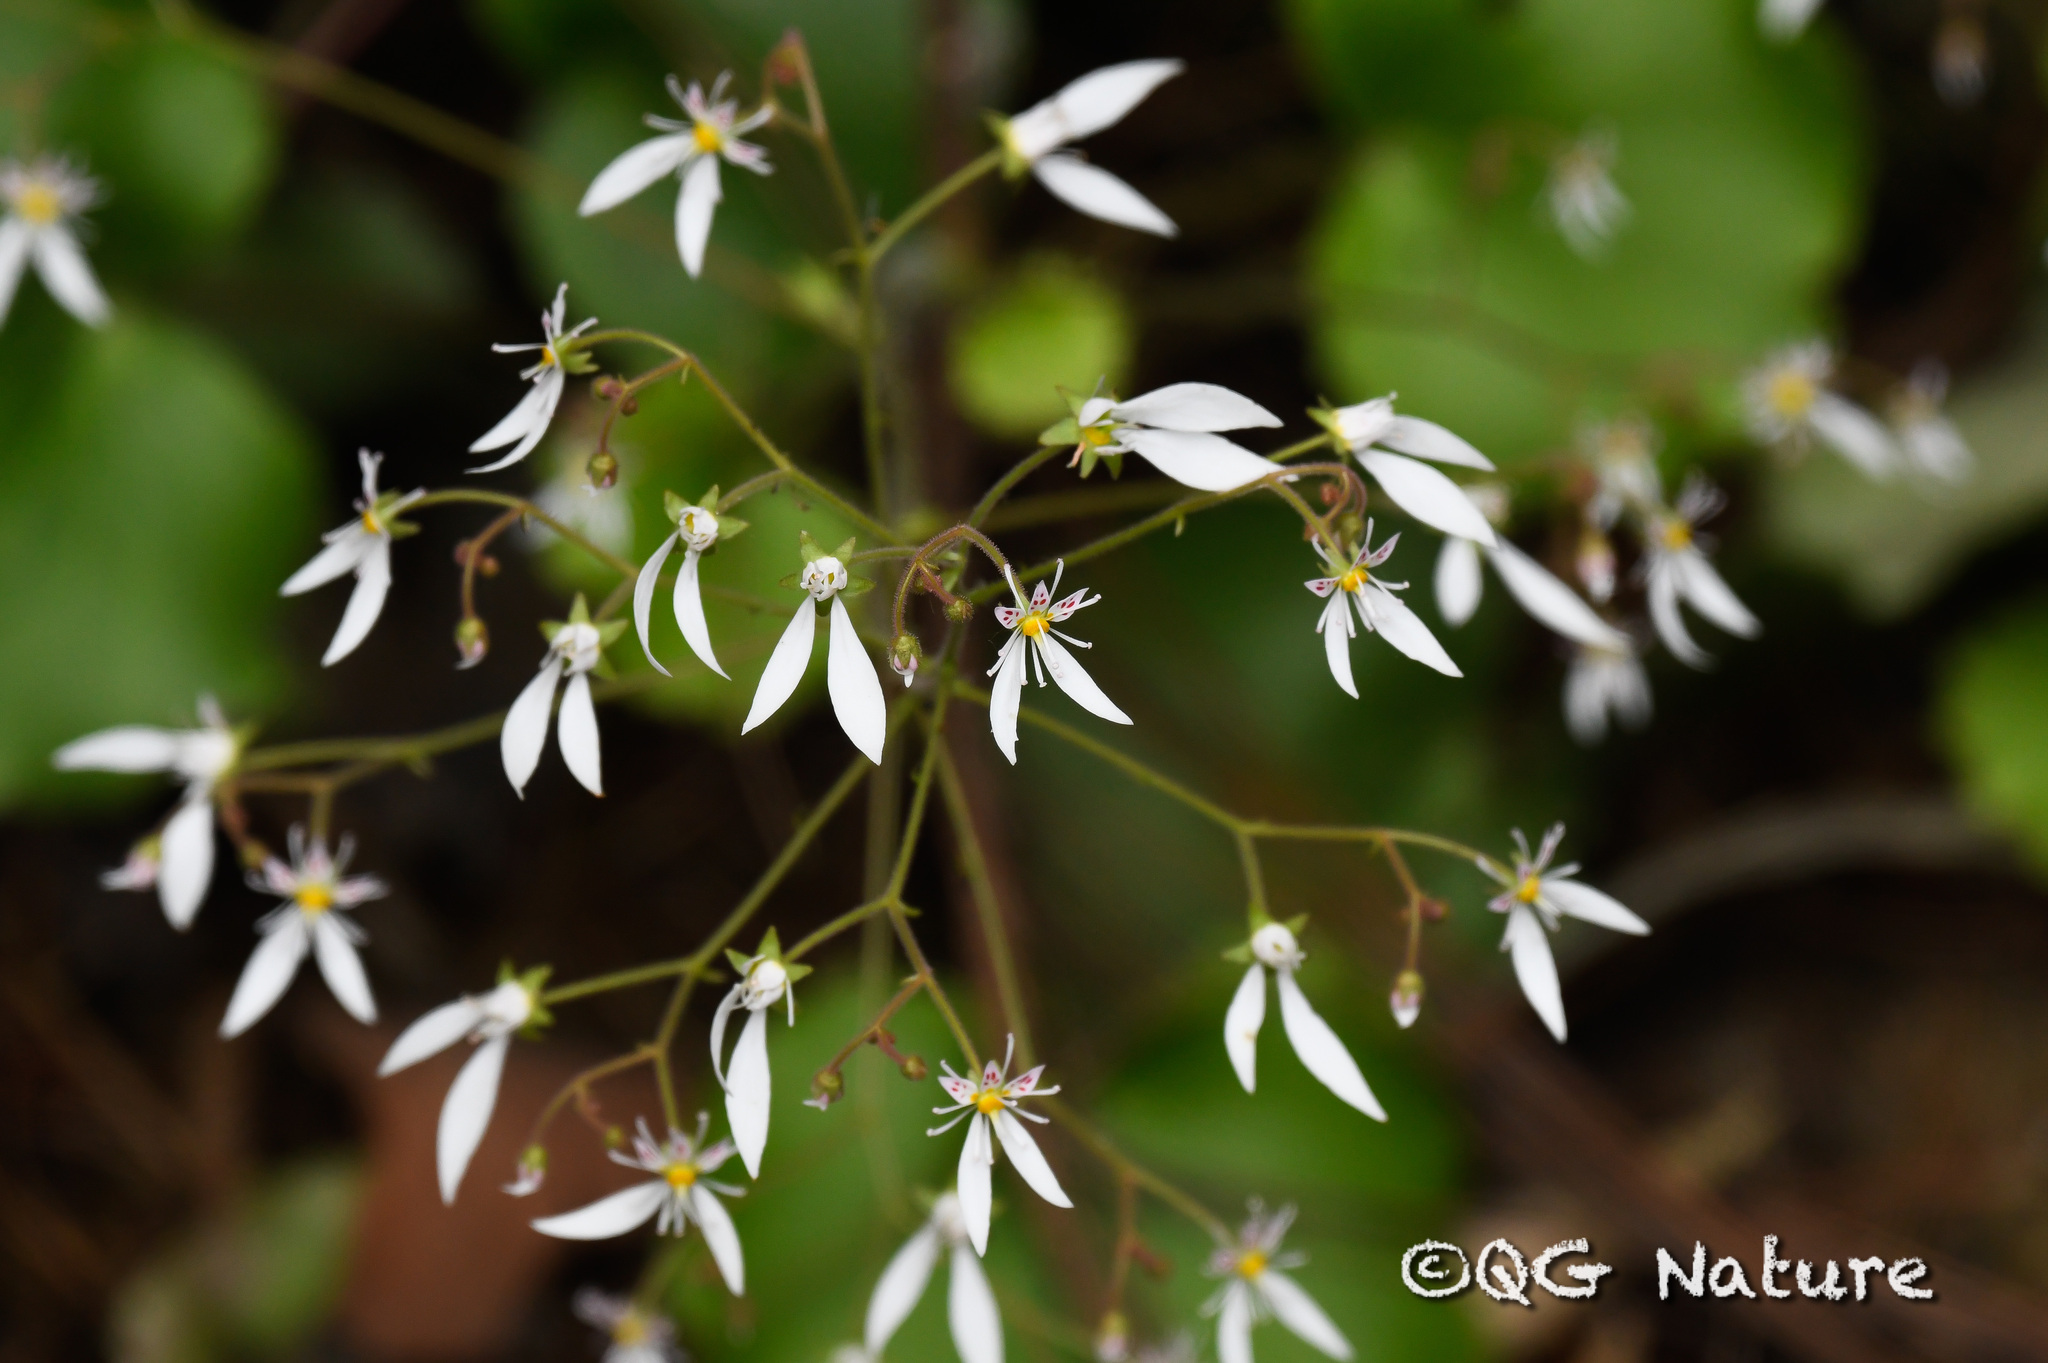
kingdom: Plantae
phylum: Tracheophyta
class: Magnoliopsida
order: Saxifragales
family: Saxifragaceae
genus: Saxifraga
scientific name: Saxifraga stolonifera
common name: Creeping saxifrage
